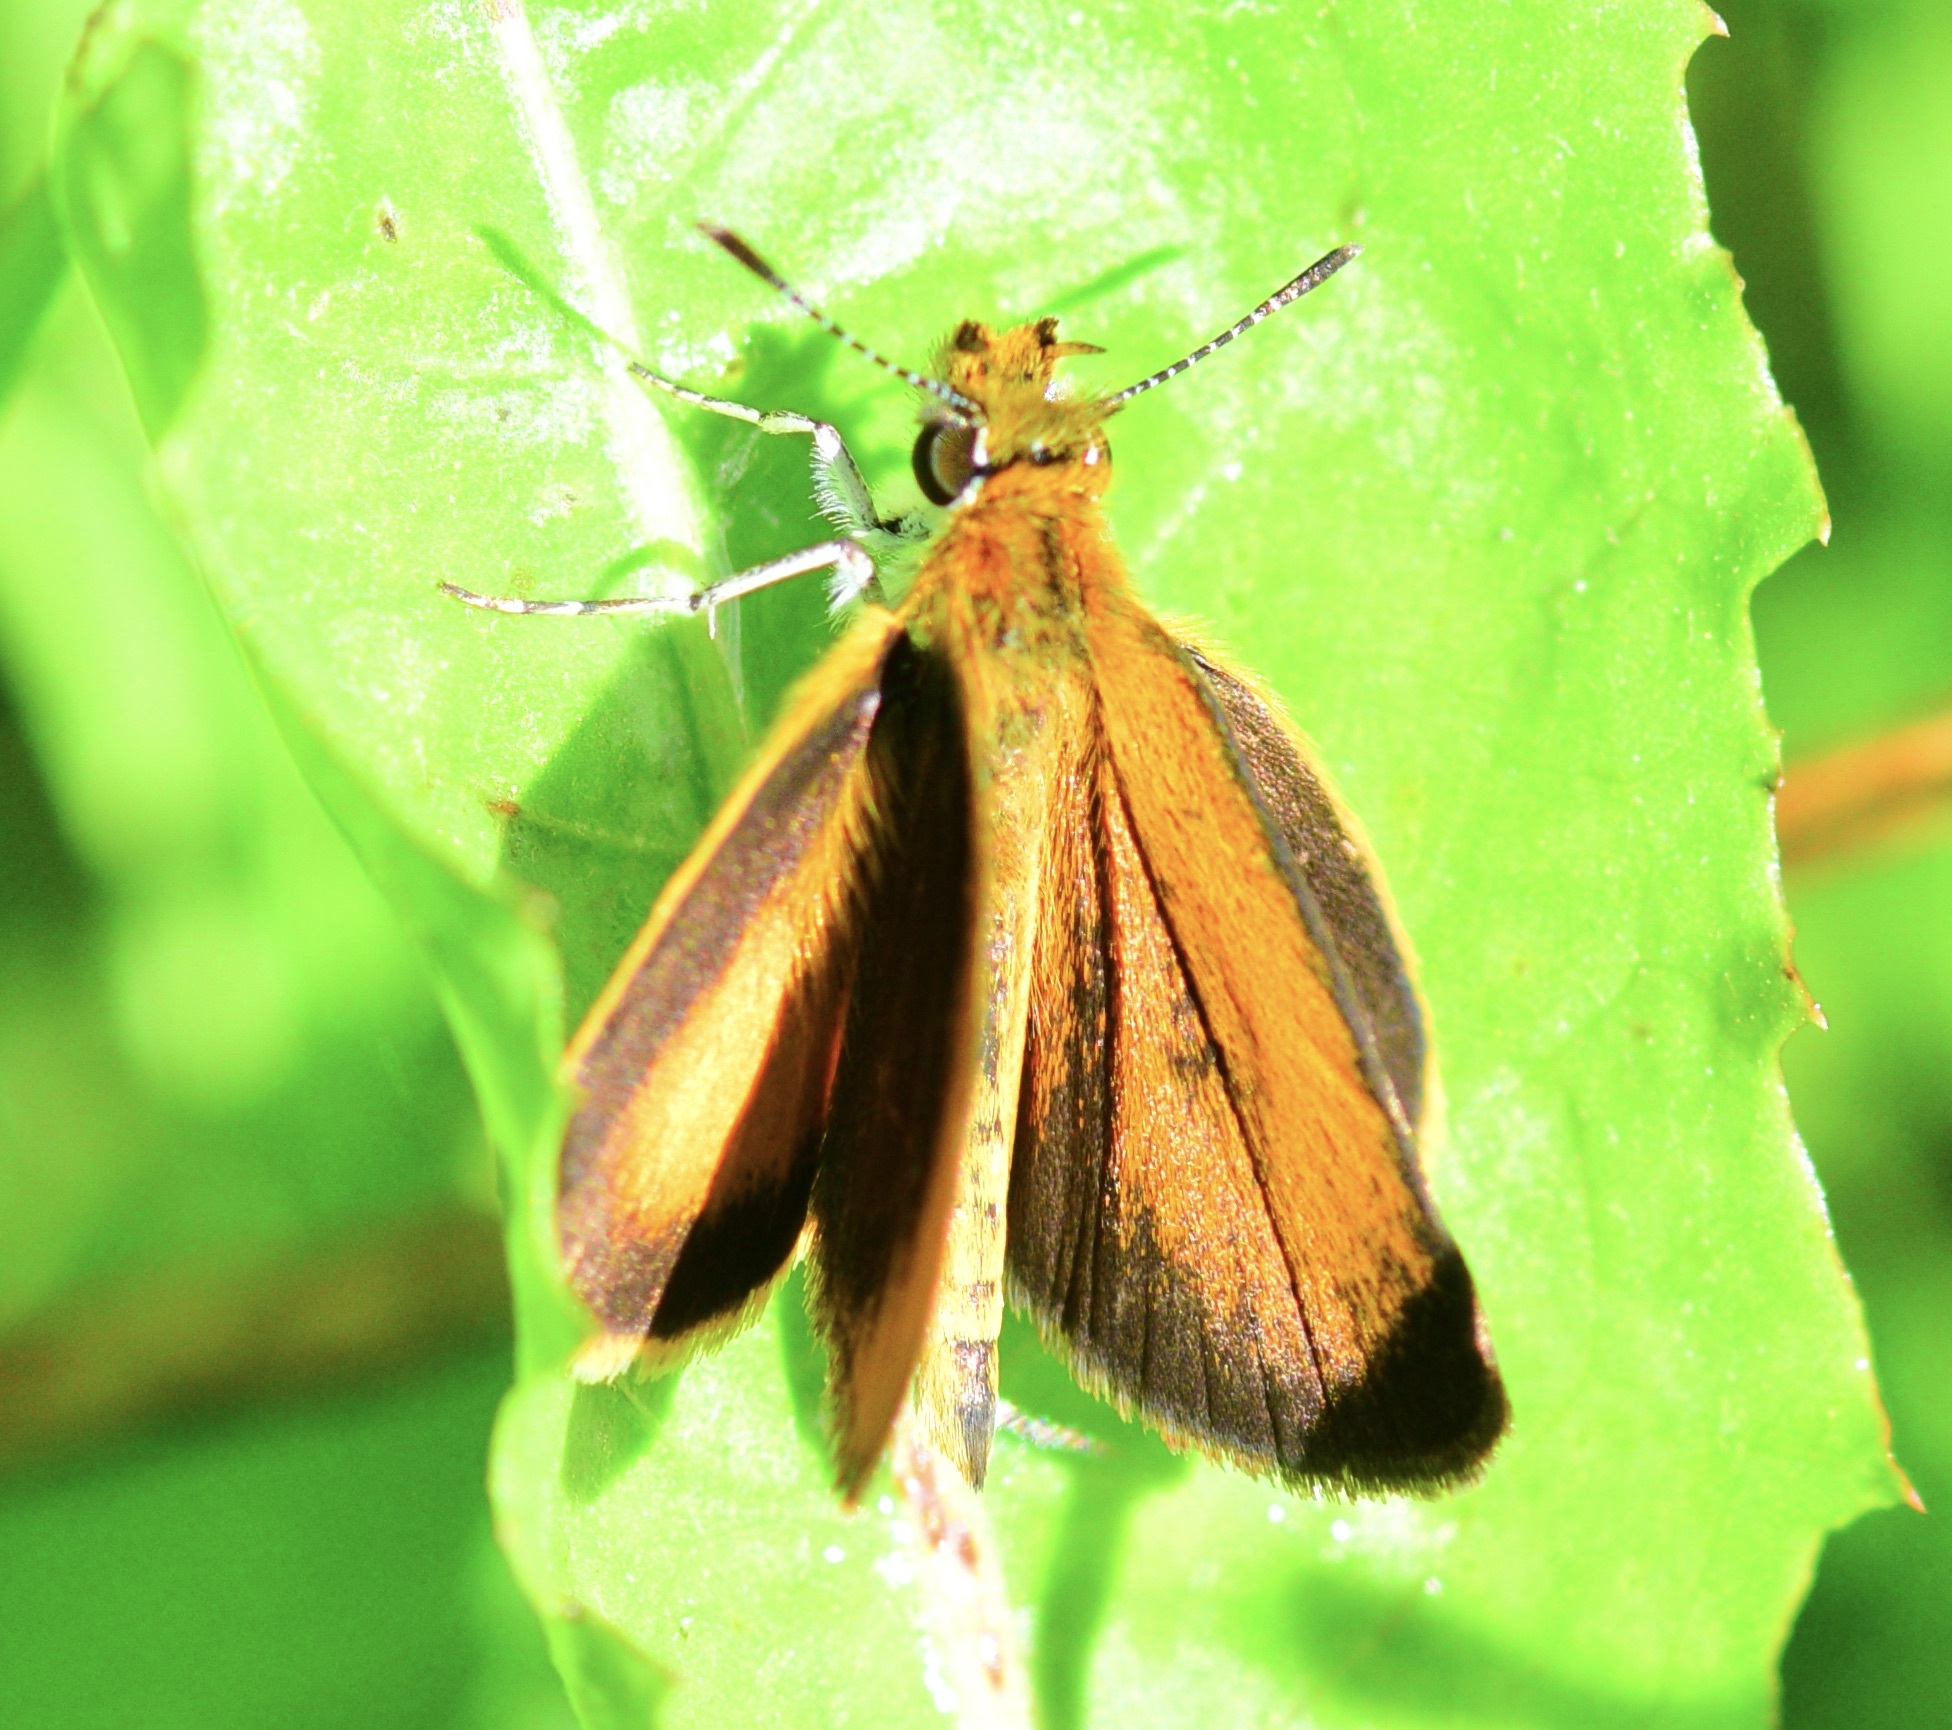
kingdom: Animalia
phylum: Arthropoda
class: Insecta
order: Lepidoptera
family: Hesperiidae
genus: Ancyloxypha
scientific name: Ancyloxypha numitor
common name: Least skipper
